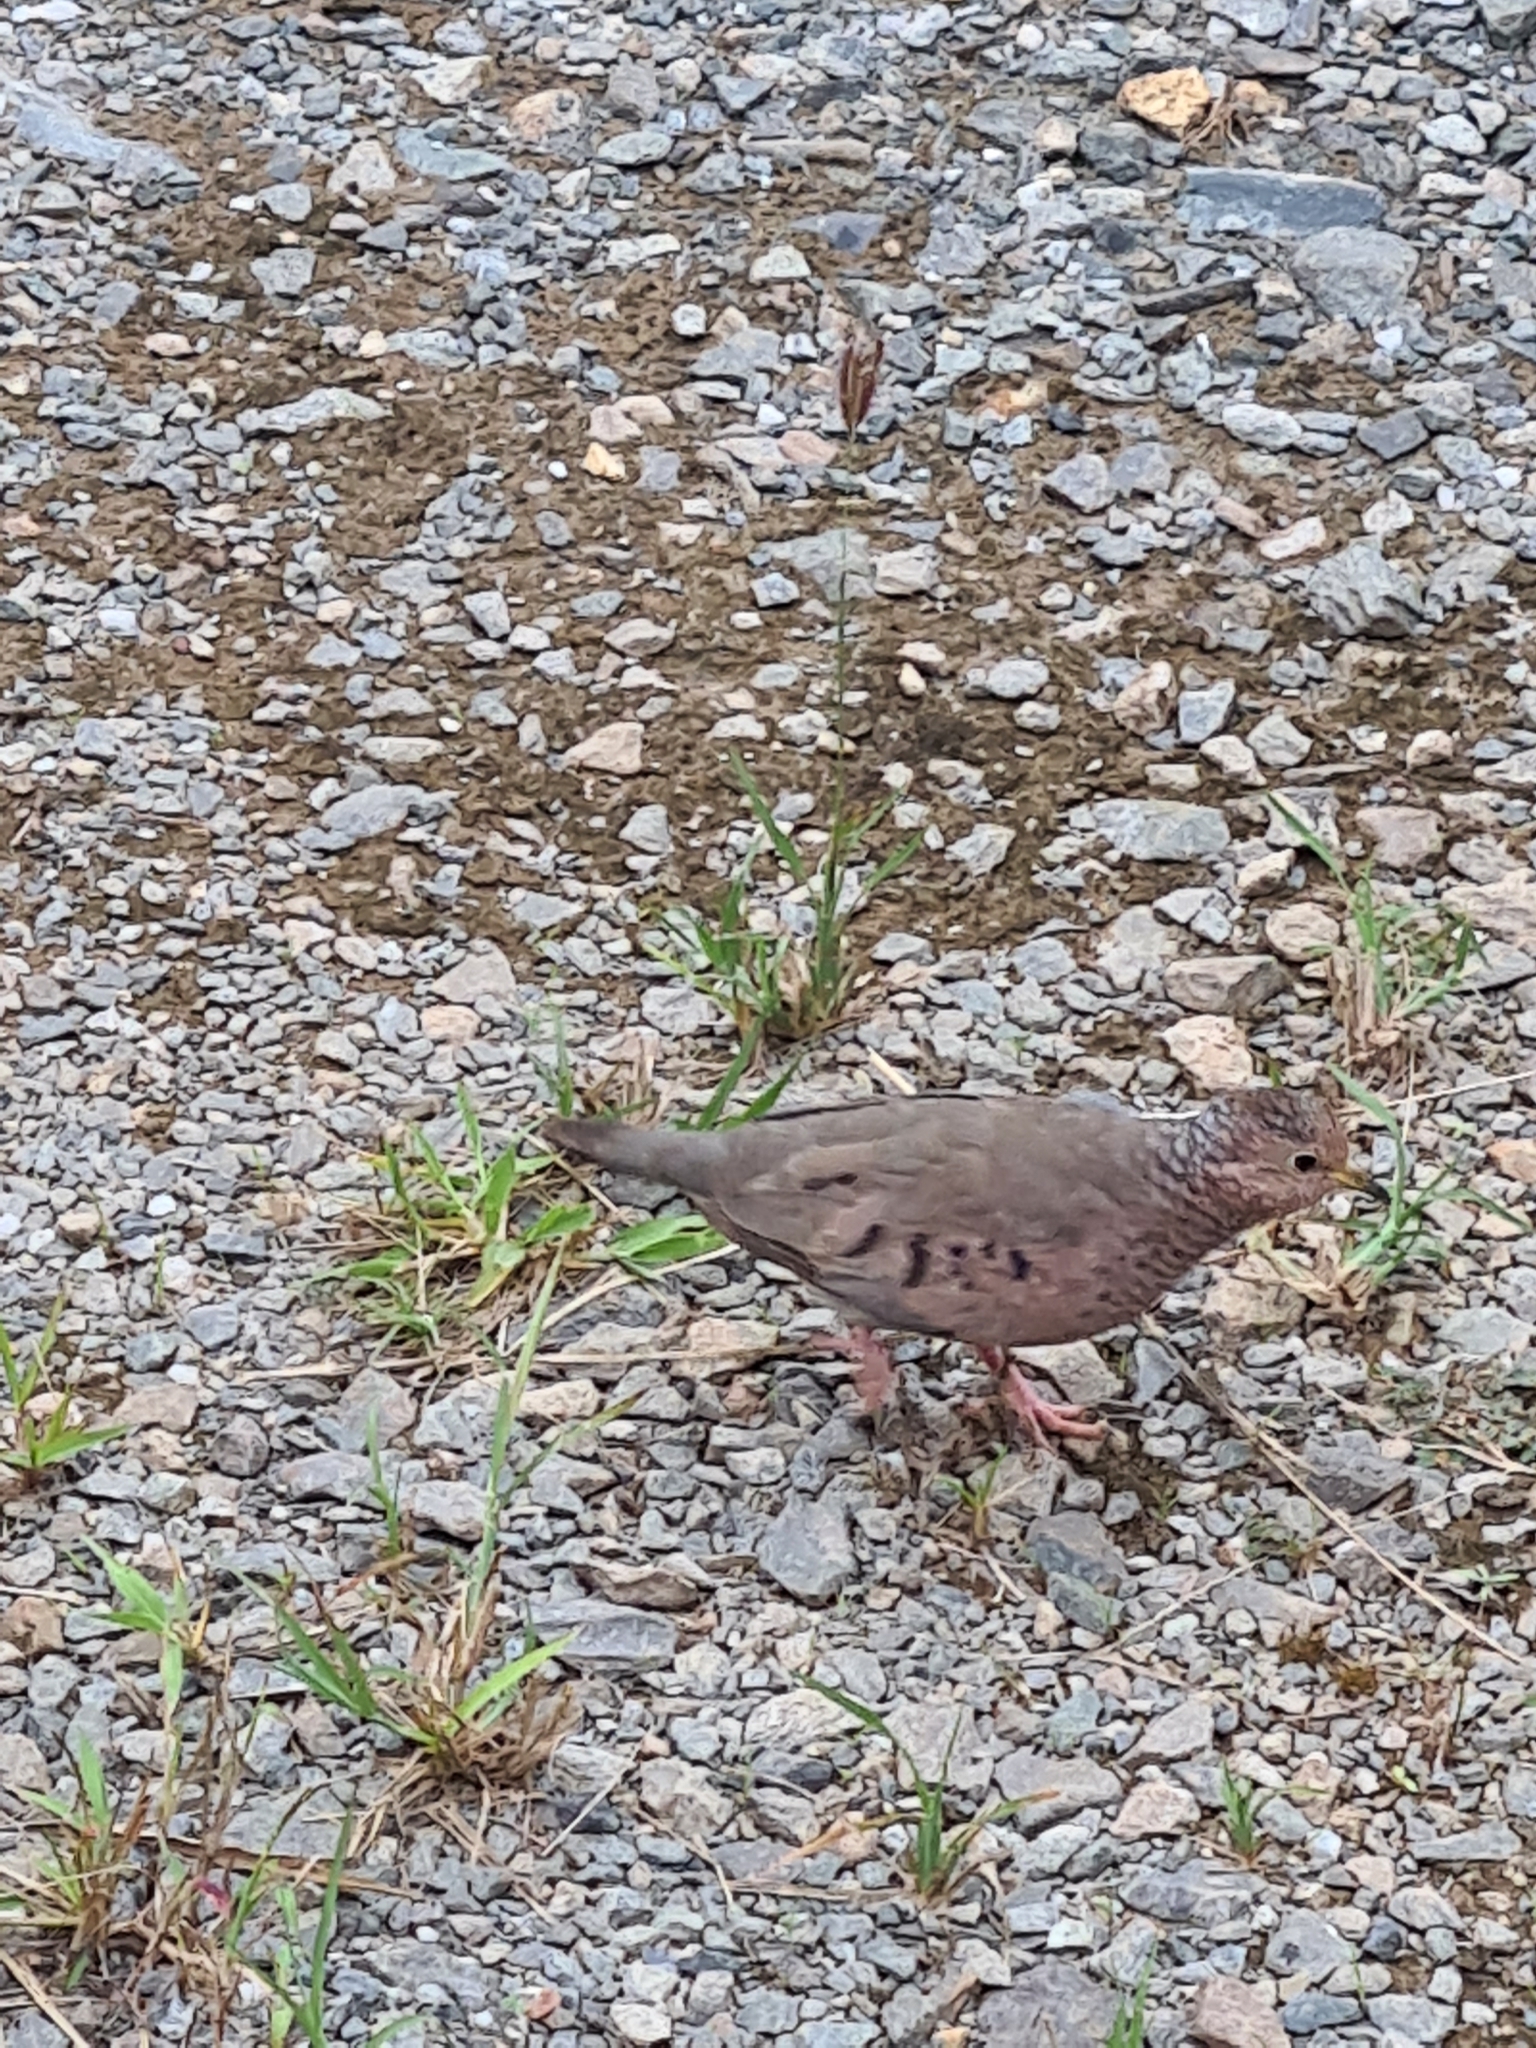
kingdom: Animalia
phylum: Chordata
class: Aves
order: Columbiformes
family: Columbidae
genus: Columbina
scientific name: Columbina talpacoti
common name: Ruddy ground dove
